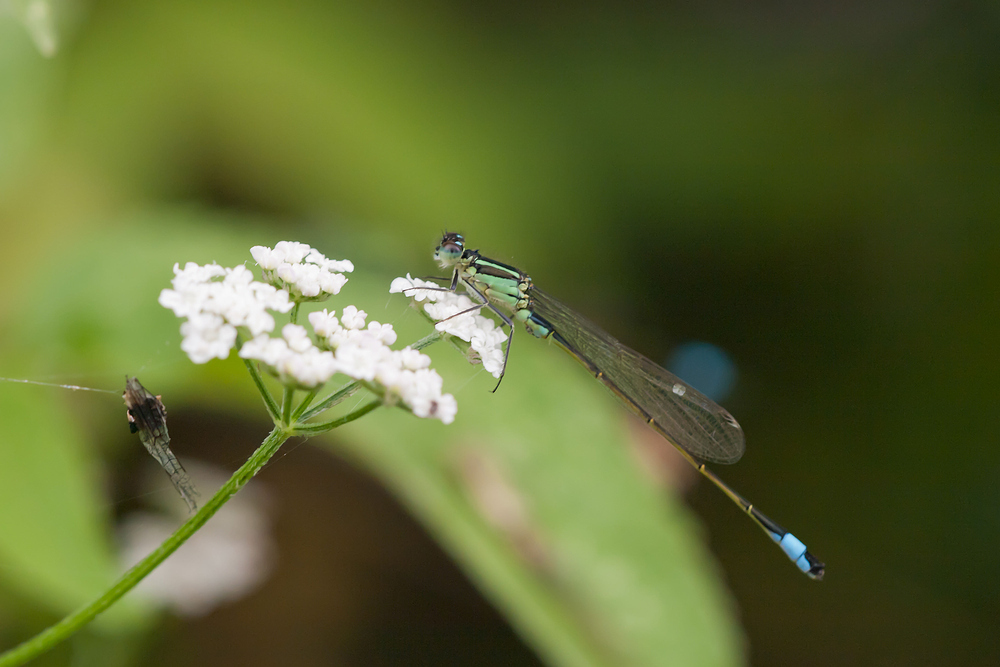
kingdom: Animalia
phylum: Arthropoda
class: Insecta
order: Odonata
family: Coenagrionidae
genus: Ischnura
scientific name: Ischnura elegans
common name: Blue-tailed damselfly
